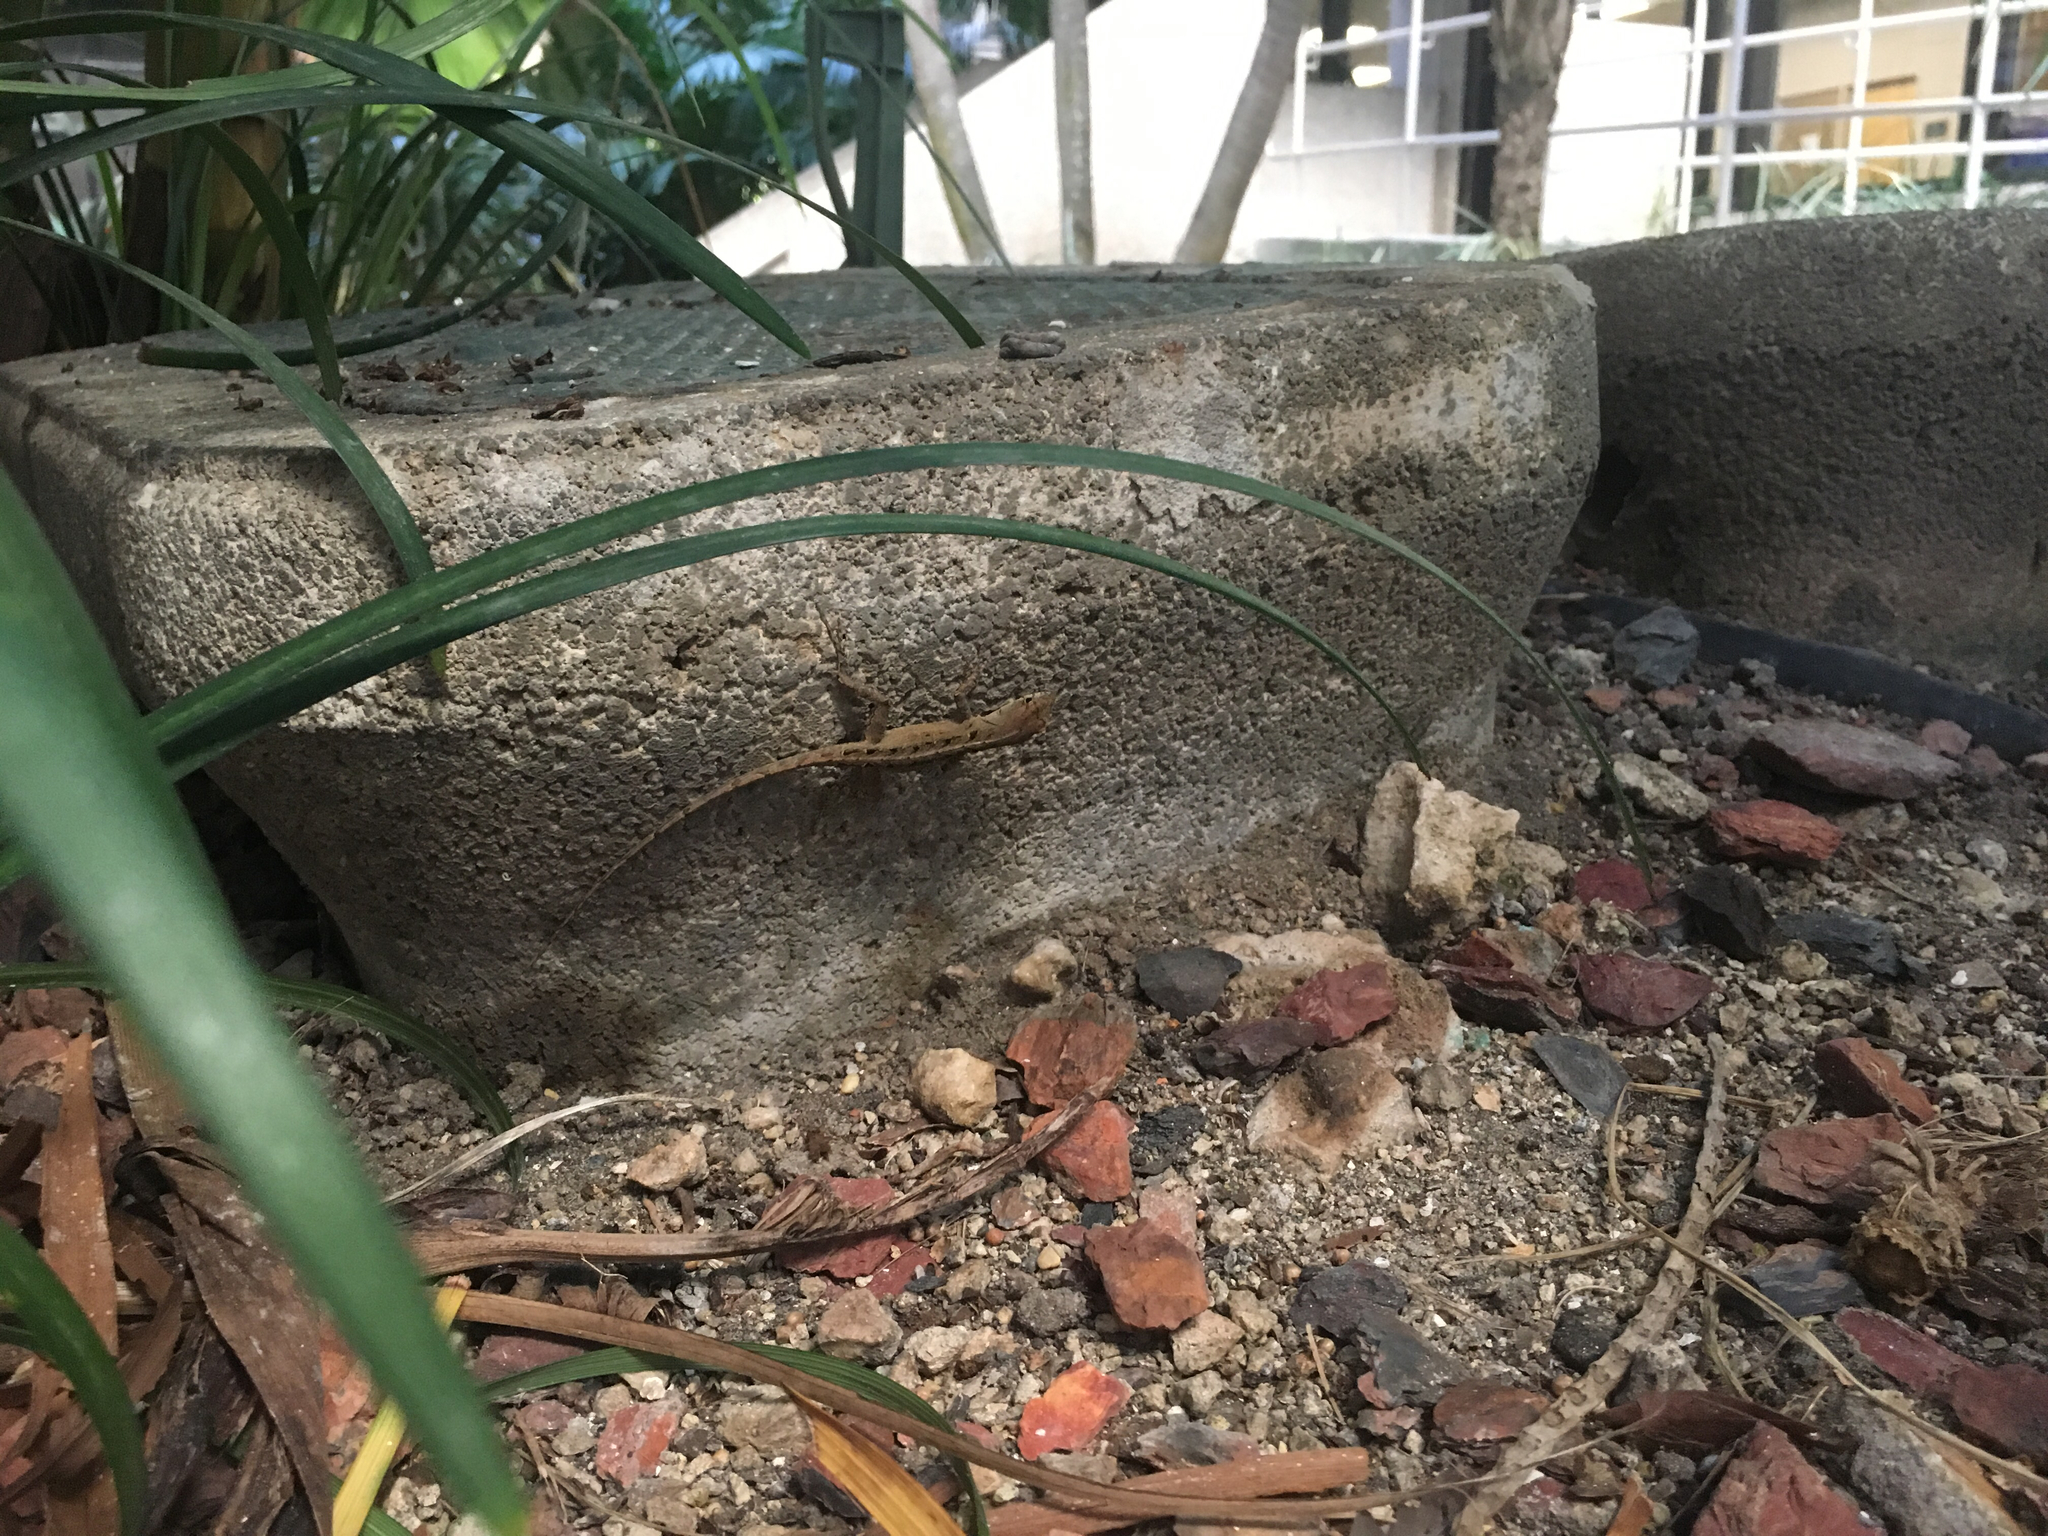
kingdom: Animalia
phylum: Chordata
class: Squamata
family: Dactyloidae
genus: Anolis
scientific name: Anolis sagrei
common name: Brown anole
